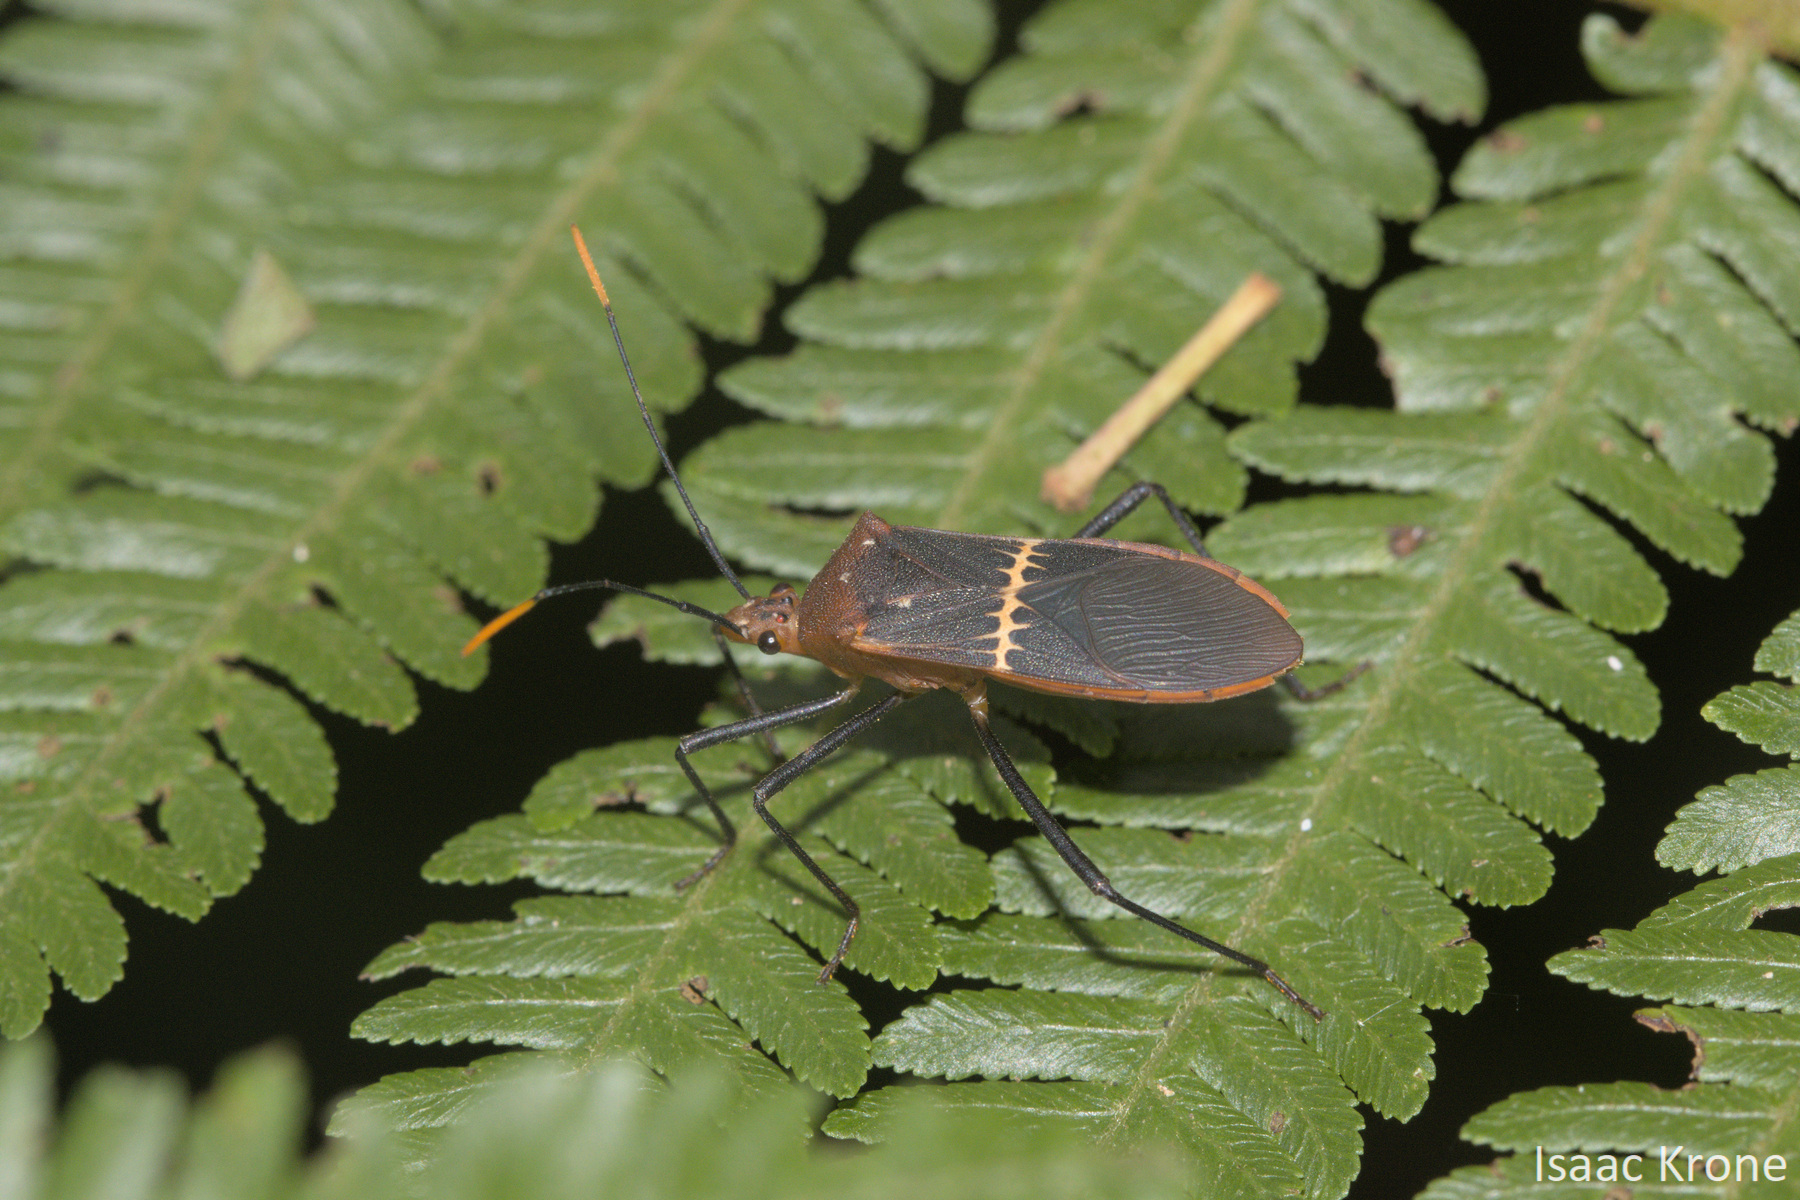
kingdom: Animalia
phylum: Arthropoda
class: Insecta
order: Hemiptera
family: Coreidae
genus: Leptoscelis
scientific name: Leptoscelis saepifera
